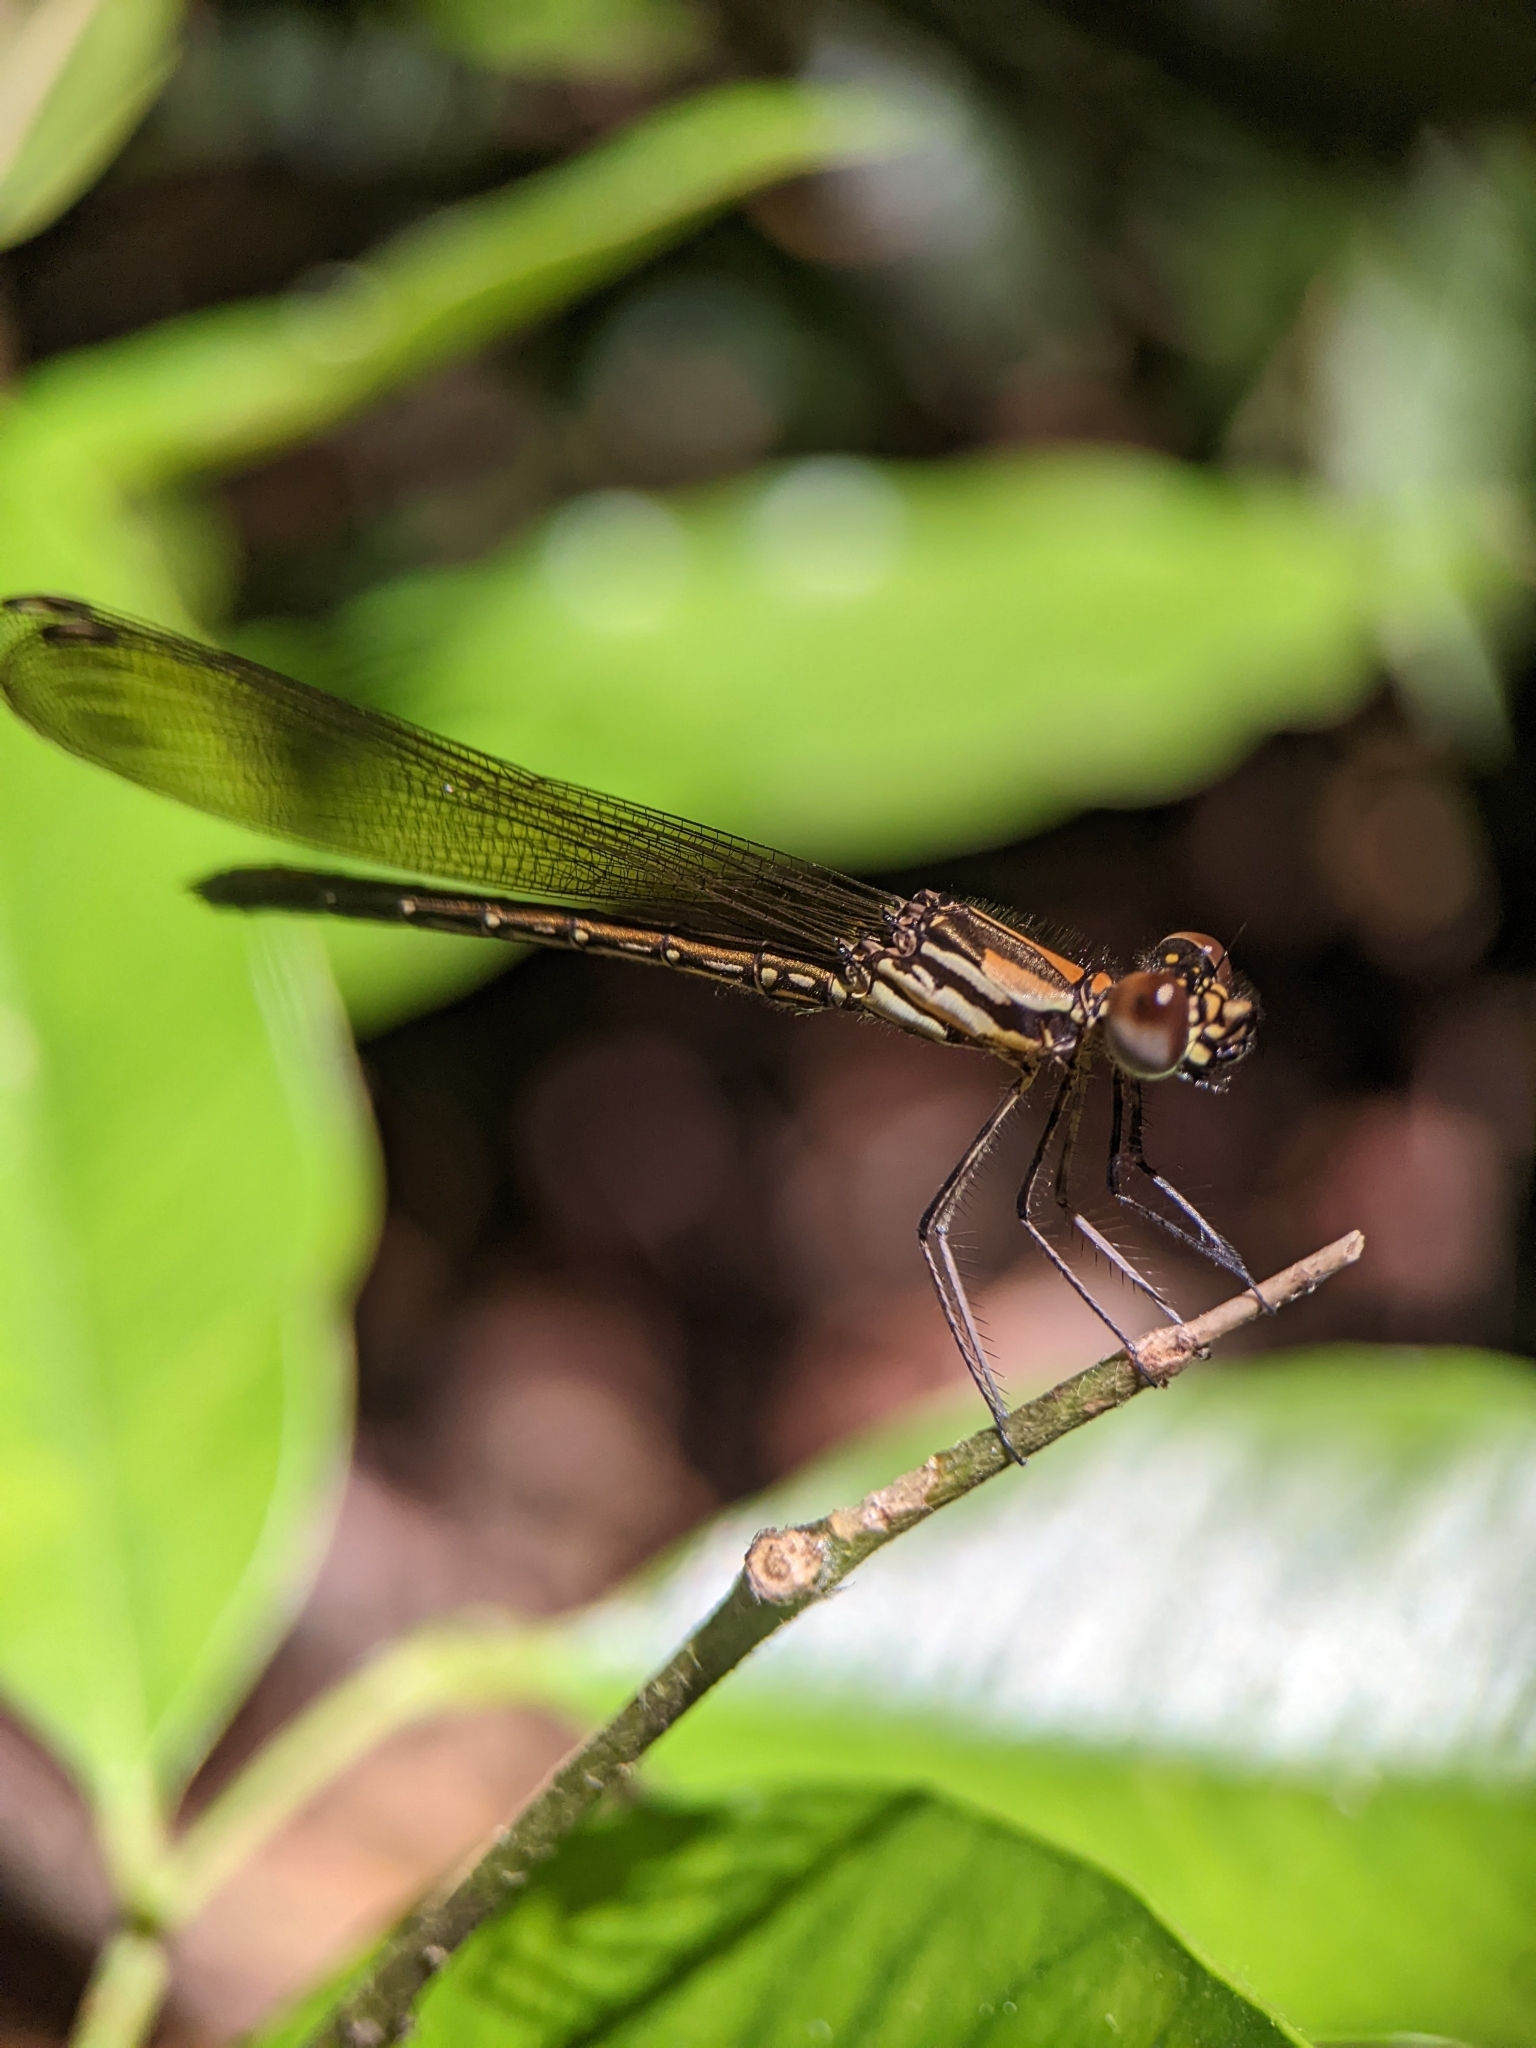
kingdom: Animalia
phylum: Arthropoda
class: Insecta
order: Odonata
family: Chlorocyphidae
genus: Heliocypha
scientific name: Heliocypha biforata
